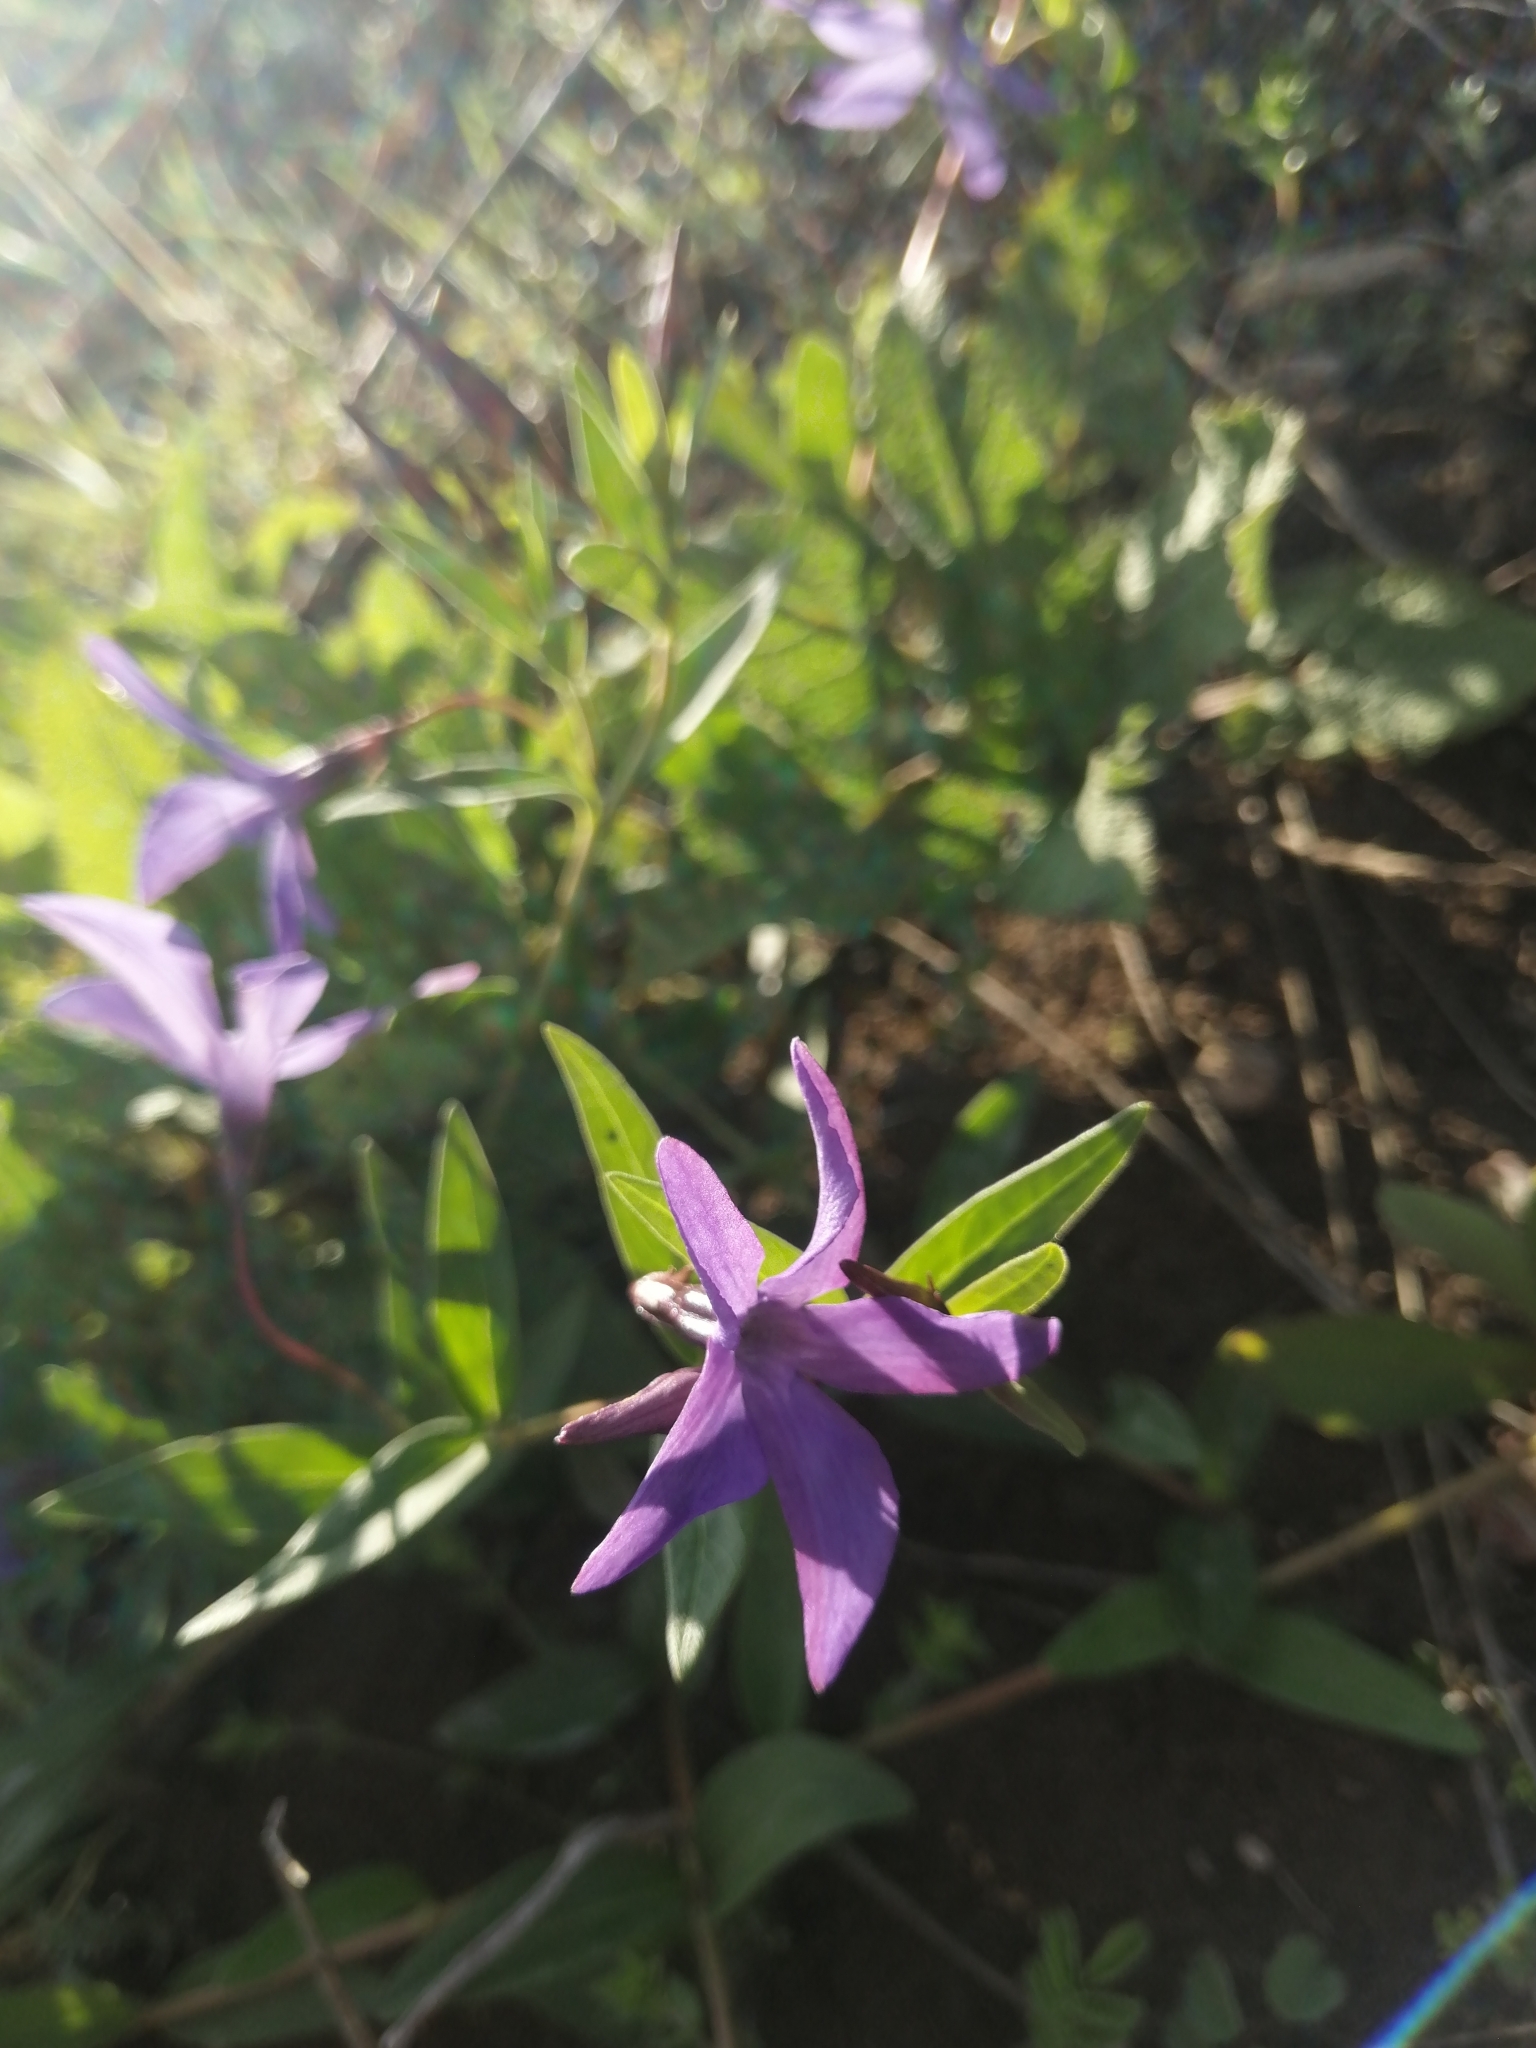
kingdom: Plantae
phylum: Tracheophyta
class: Magnoliopsida
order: Gentianales
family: Apocynaceae
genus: Vinca
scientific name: Vinca herbacea
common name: Herbaceous periwinkle
